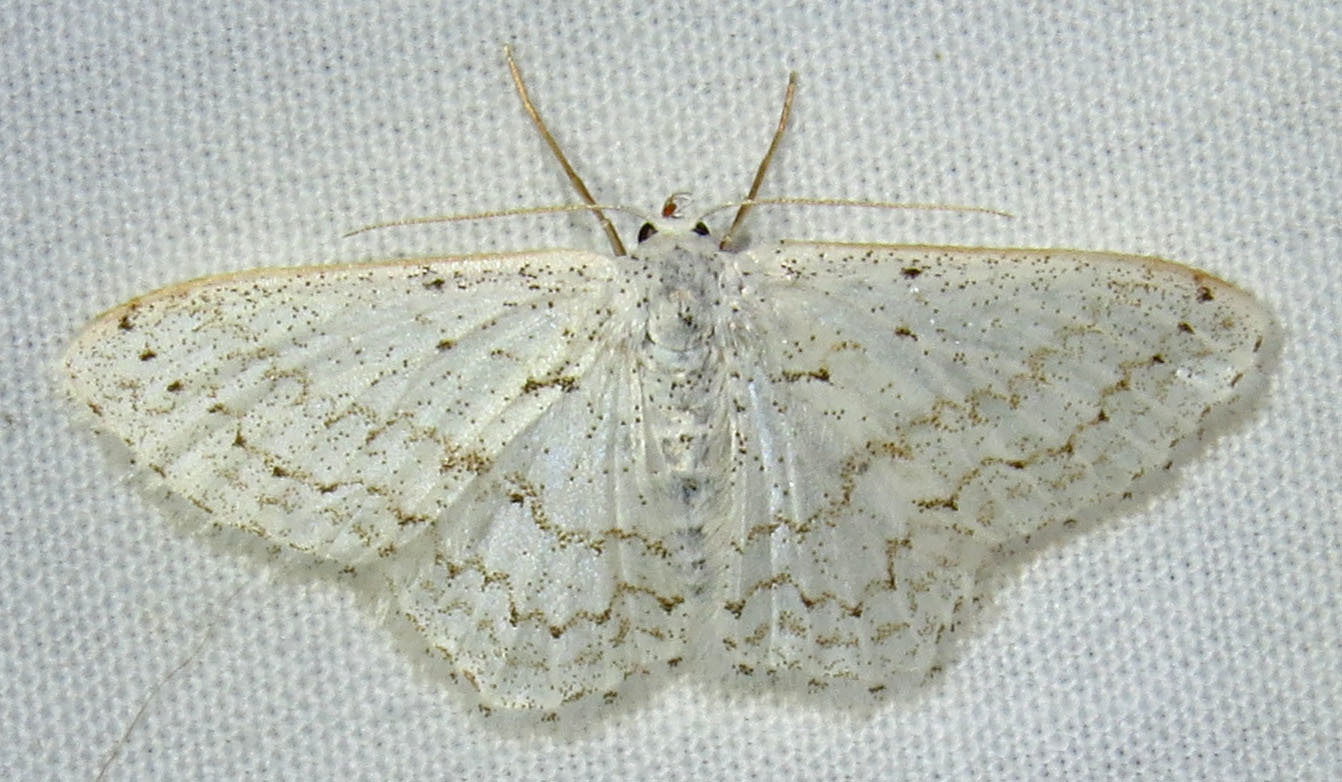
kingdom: Animalia
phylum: Arthropoda
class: Insecta
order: Lepidoptera
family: Geometridae
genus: Idaea
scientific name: Idaea tacturata
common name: Dot-lined wave
